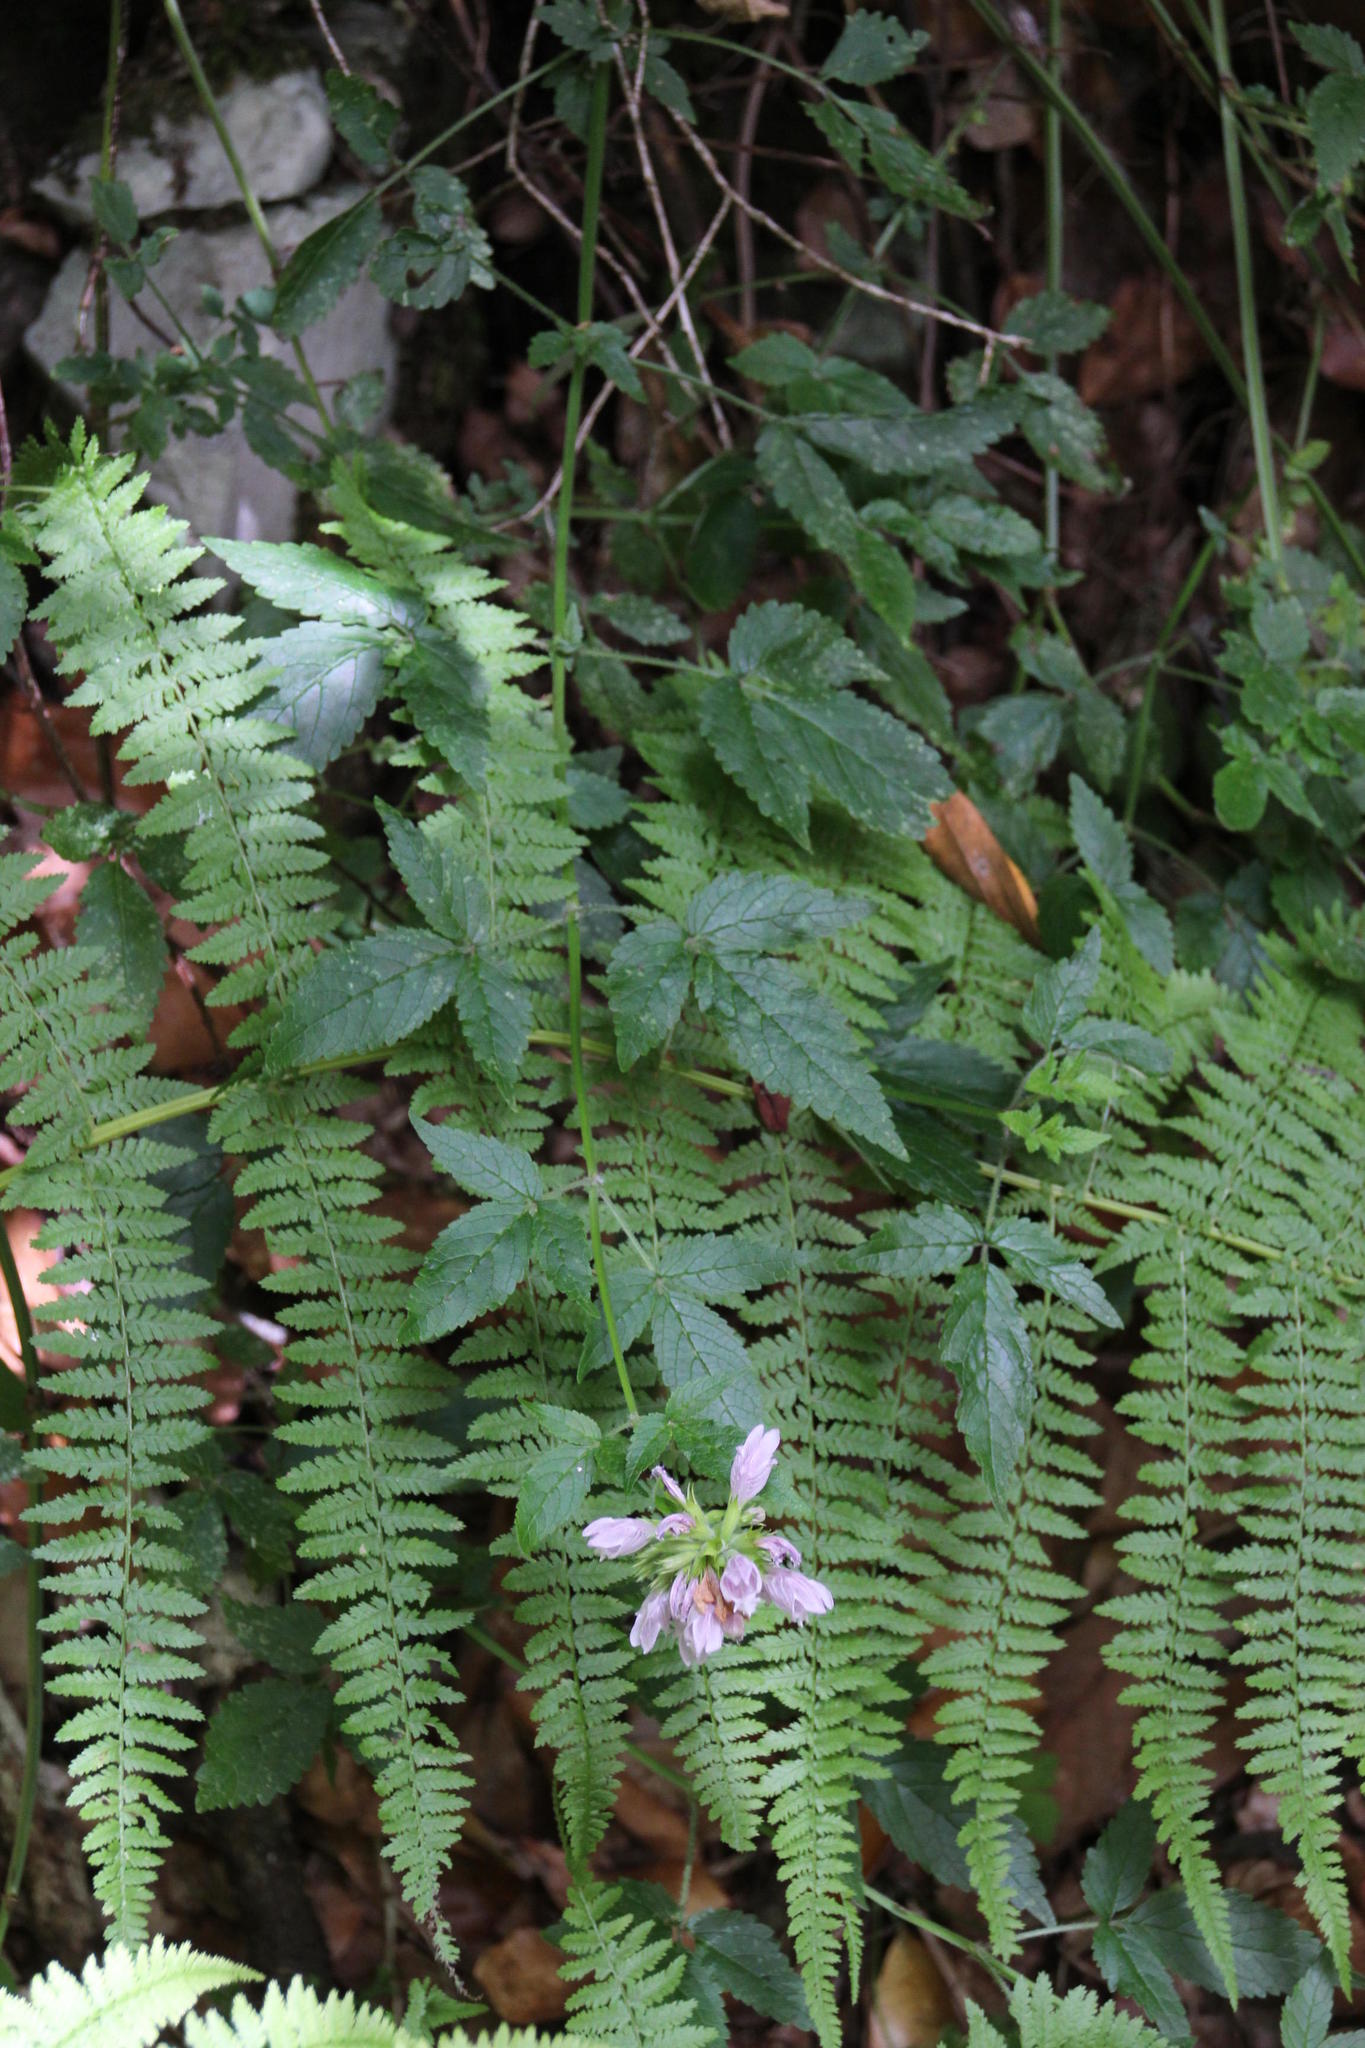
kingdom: Plantae
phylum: Tracheophyta
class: Magnoliopsida
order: Lamiales
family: Lamiaceae
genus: Cedronella
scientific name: Cedronella canariensis
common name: Canary islands balm
